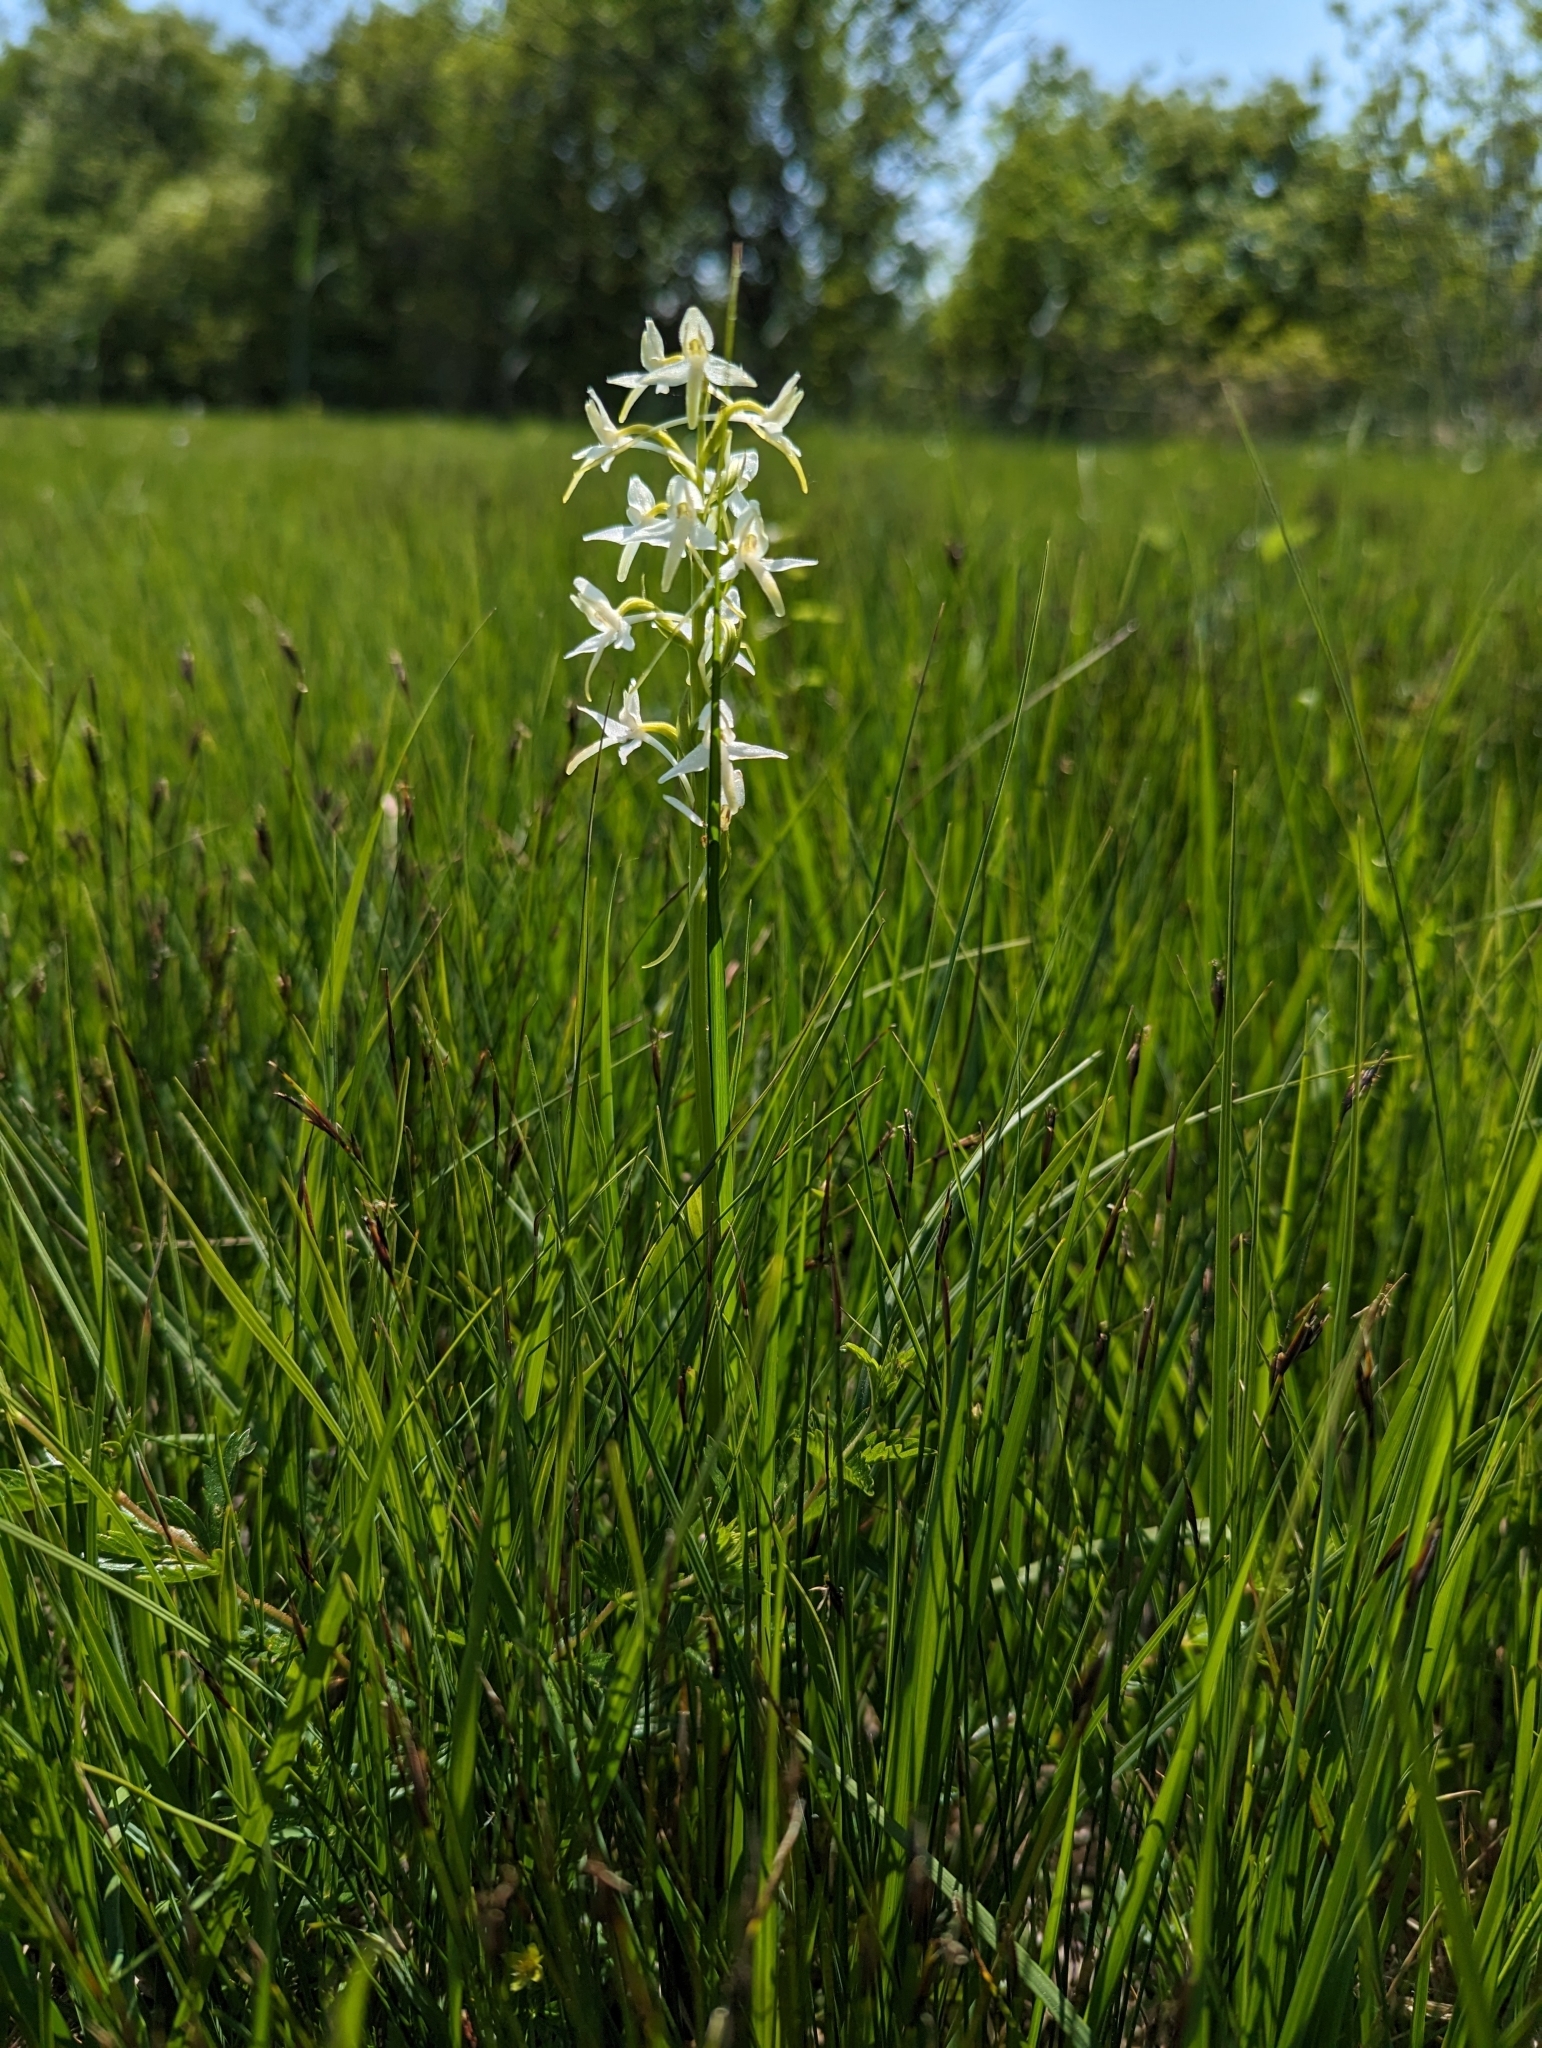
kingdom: Plantae
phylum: Tracheophyta
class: Liliopsida
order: Asparagales
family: Orchidaceae
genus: Platanthera
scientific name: Platanthera bifolia
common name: Lesser butterfly-orchid
